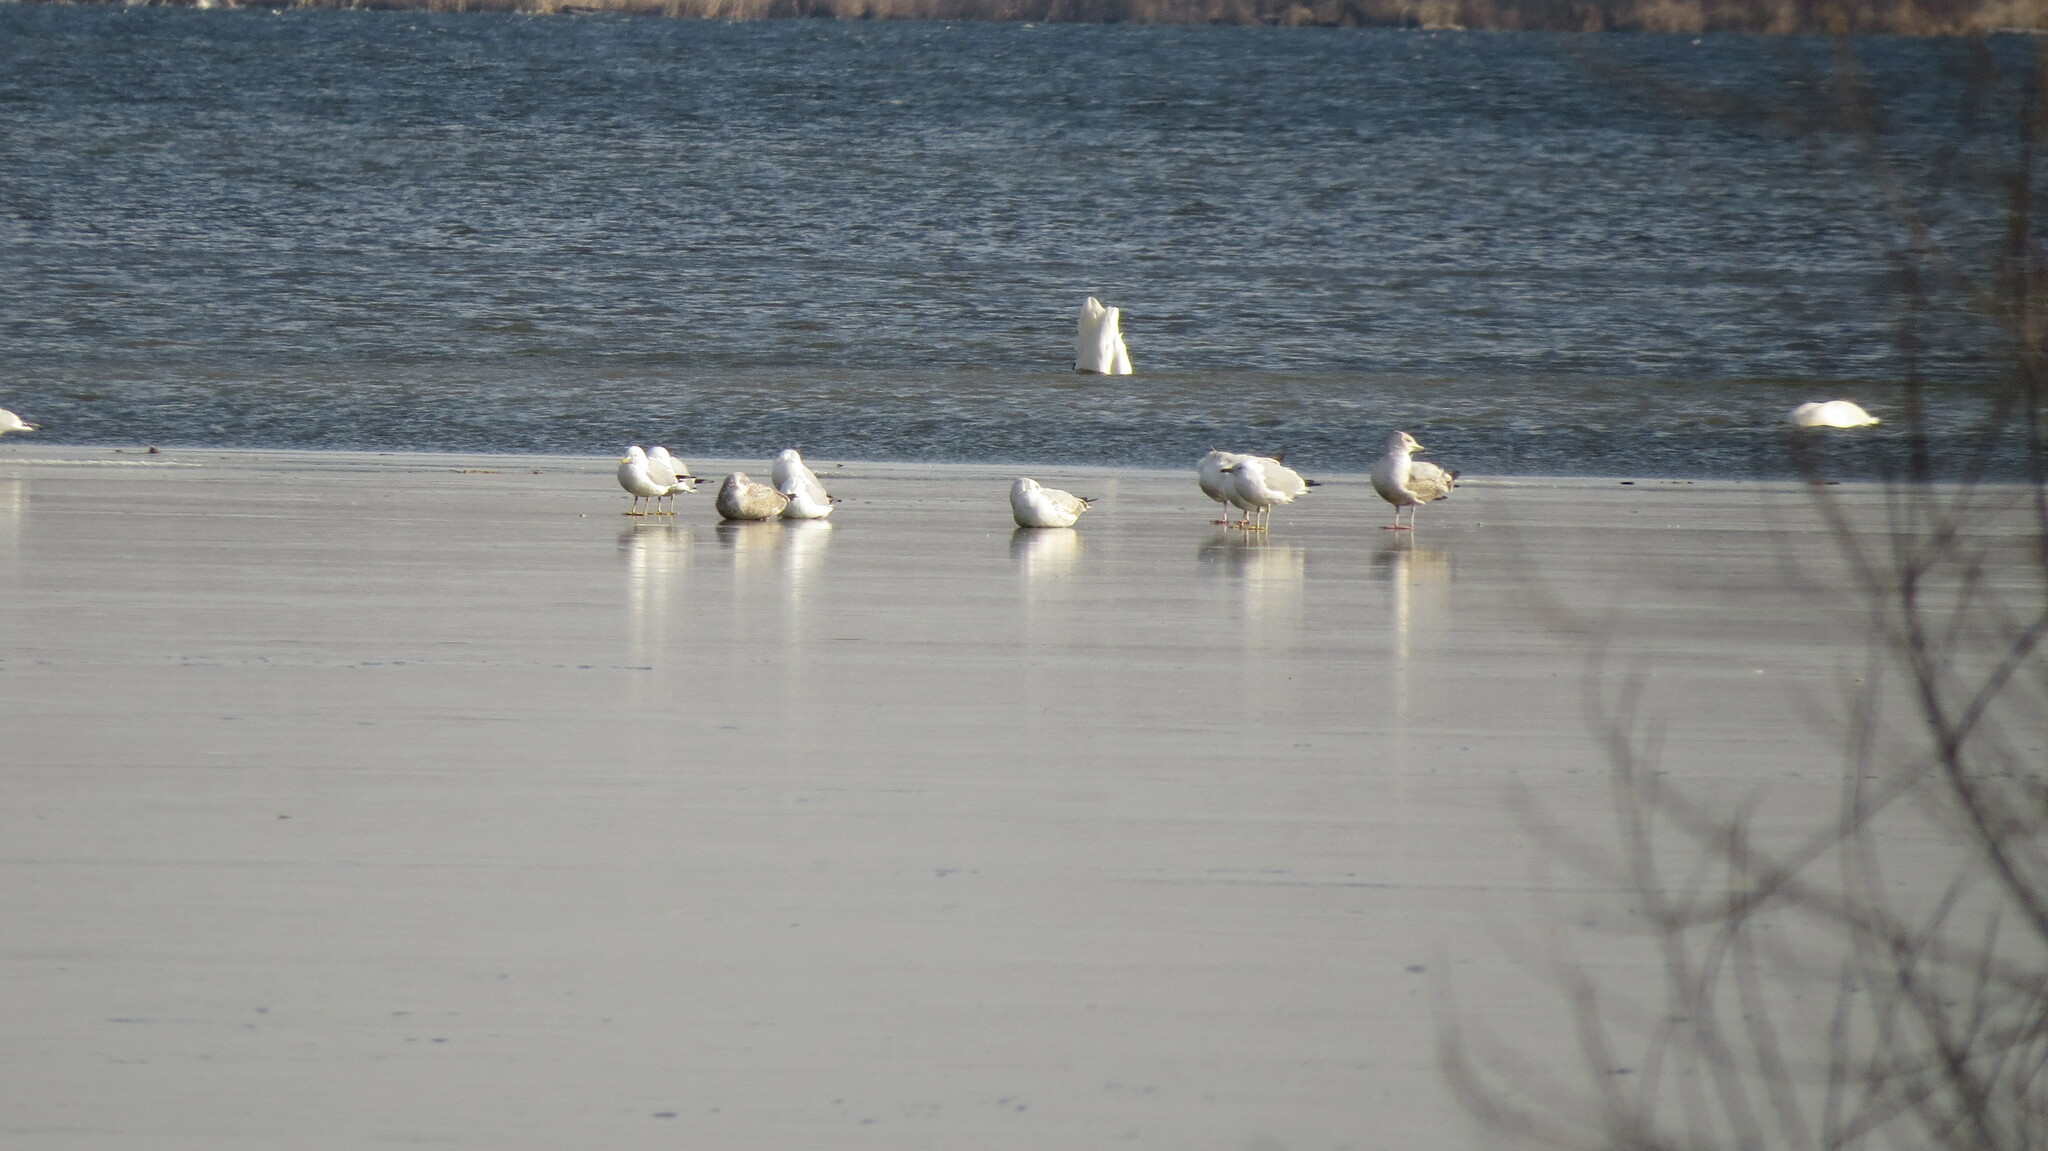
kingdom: Animalia
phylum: Chordata
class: Aves
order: Charadriiformes
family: Laridae
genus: Larus
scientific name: Larus delawarensis
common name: Ring-billed gull
